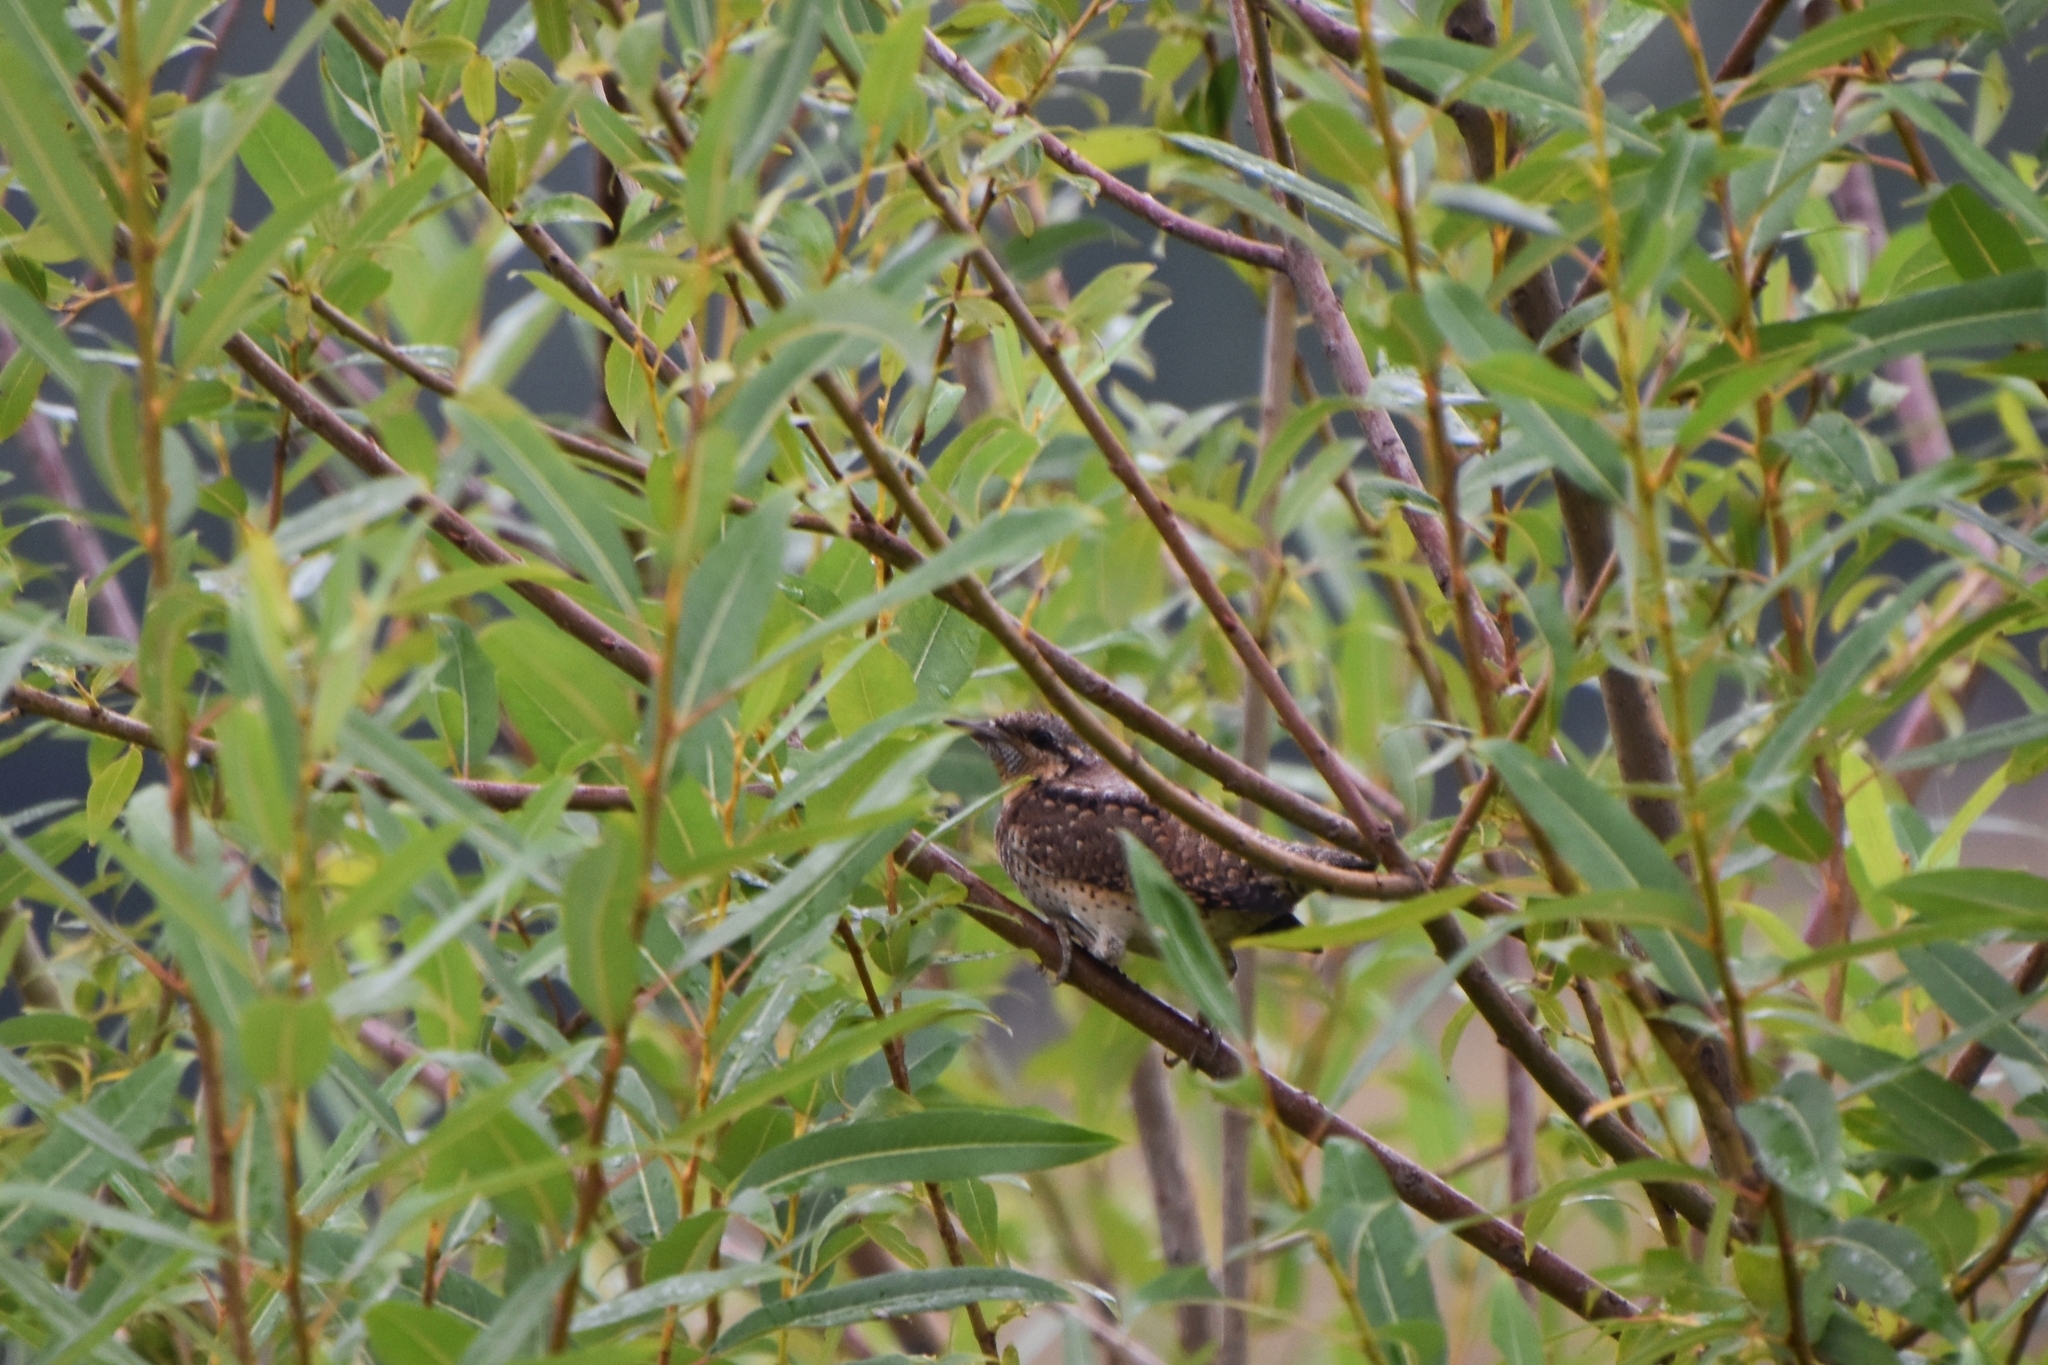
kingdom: Animalia
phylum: Chordata
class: Aves
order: Piciformes
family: Picidae
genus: Jynx
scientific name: Jynx torquilla
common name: Eurasian wryneck
